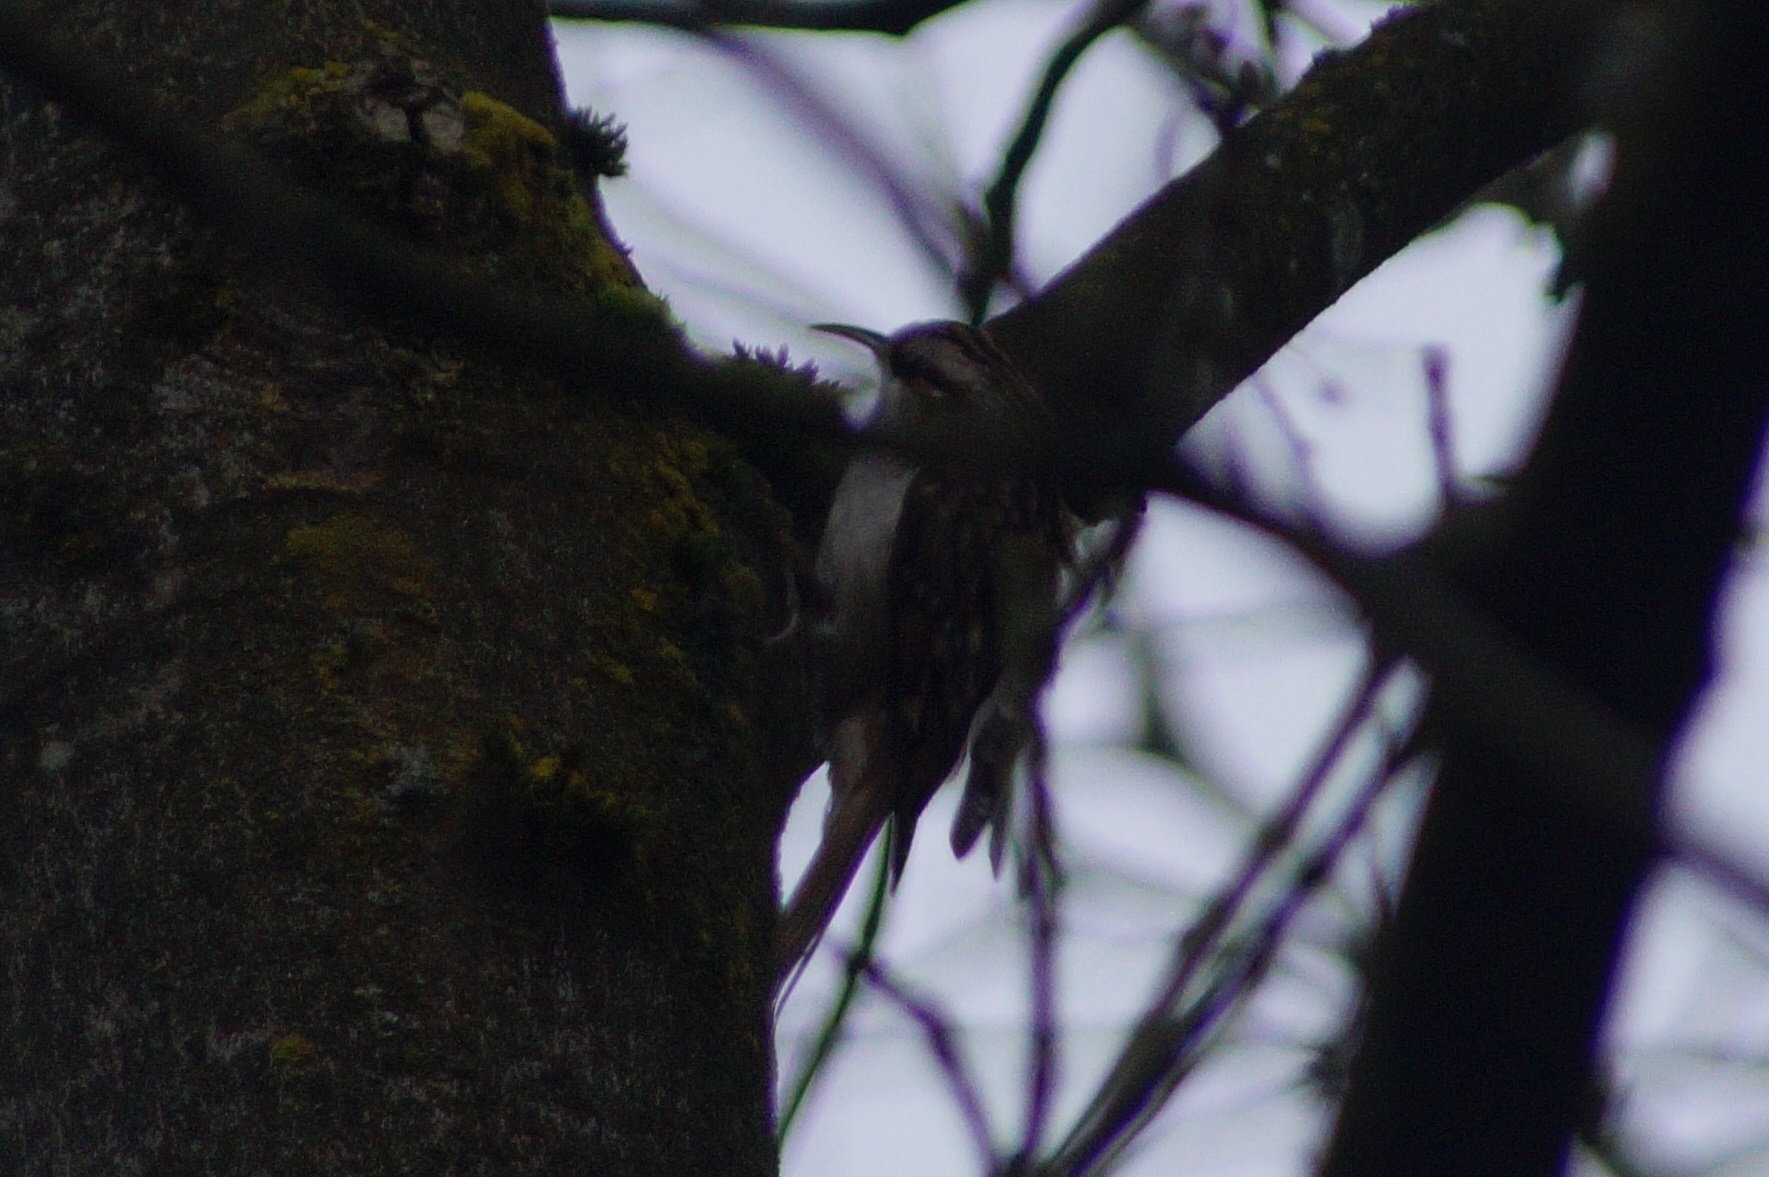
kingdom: Animalia
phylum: Chordata
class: Aves
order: Passeriformes
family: Certhiidae
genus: Certhia
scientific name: Certhia
